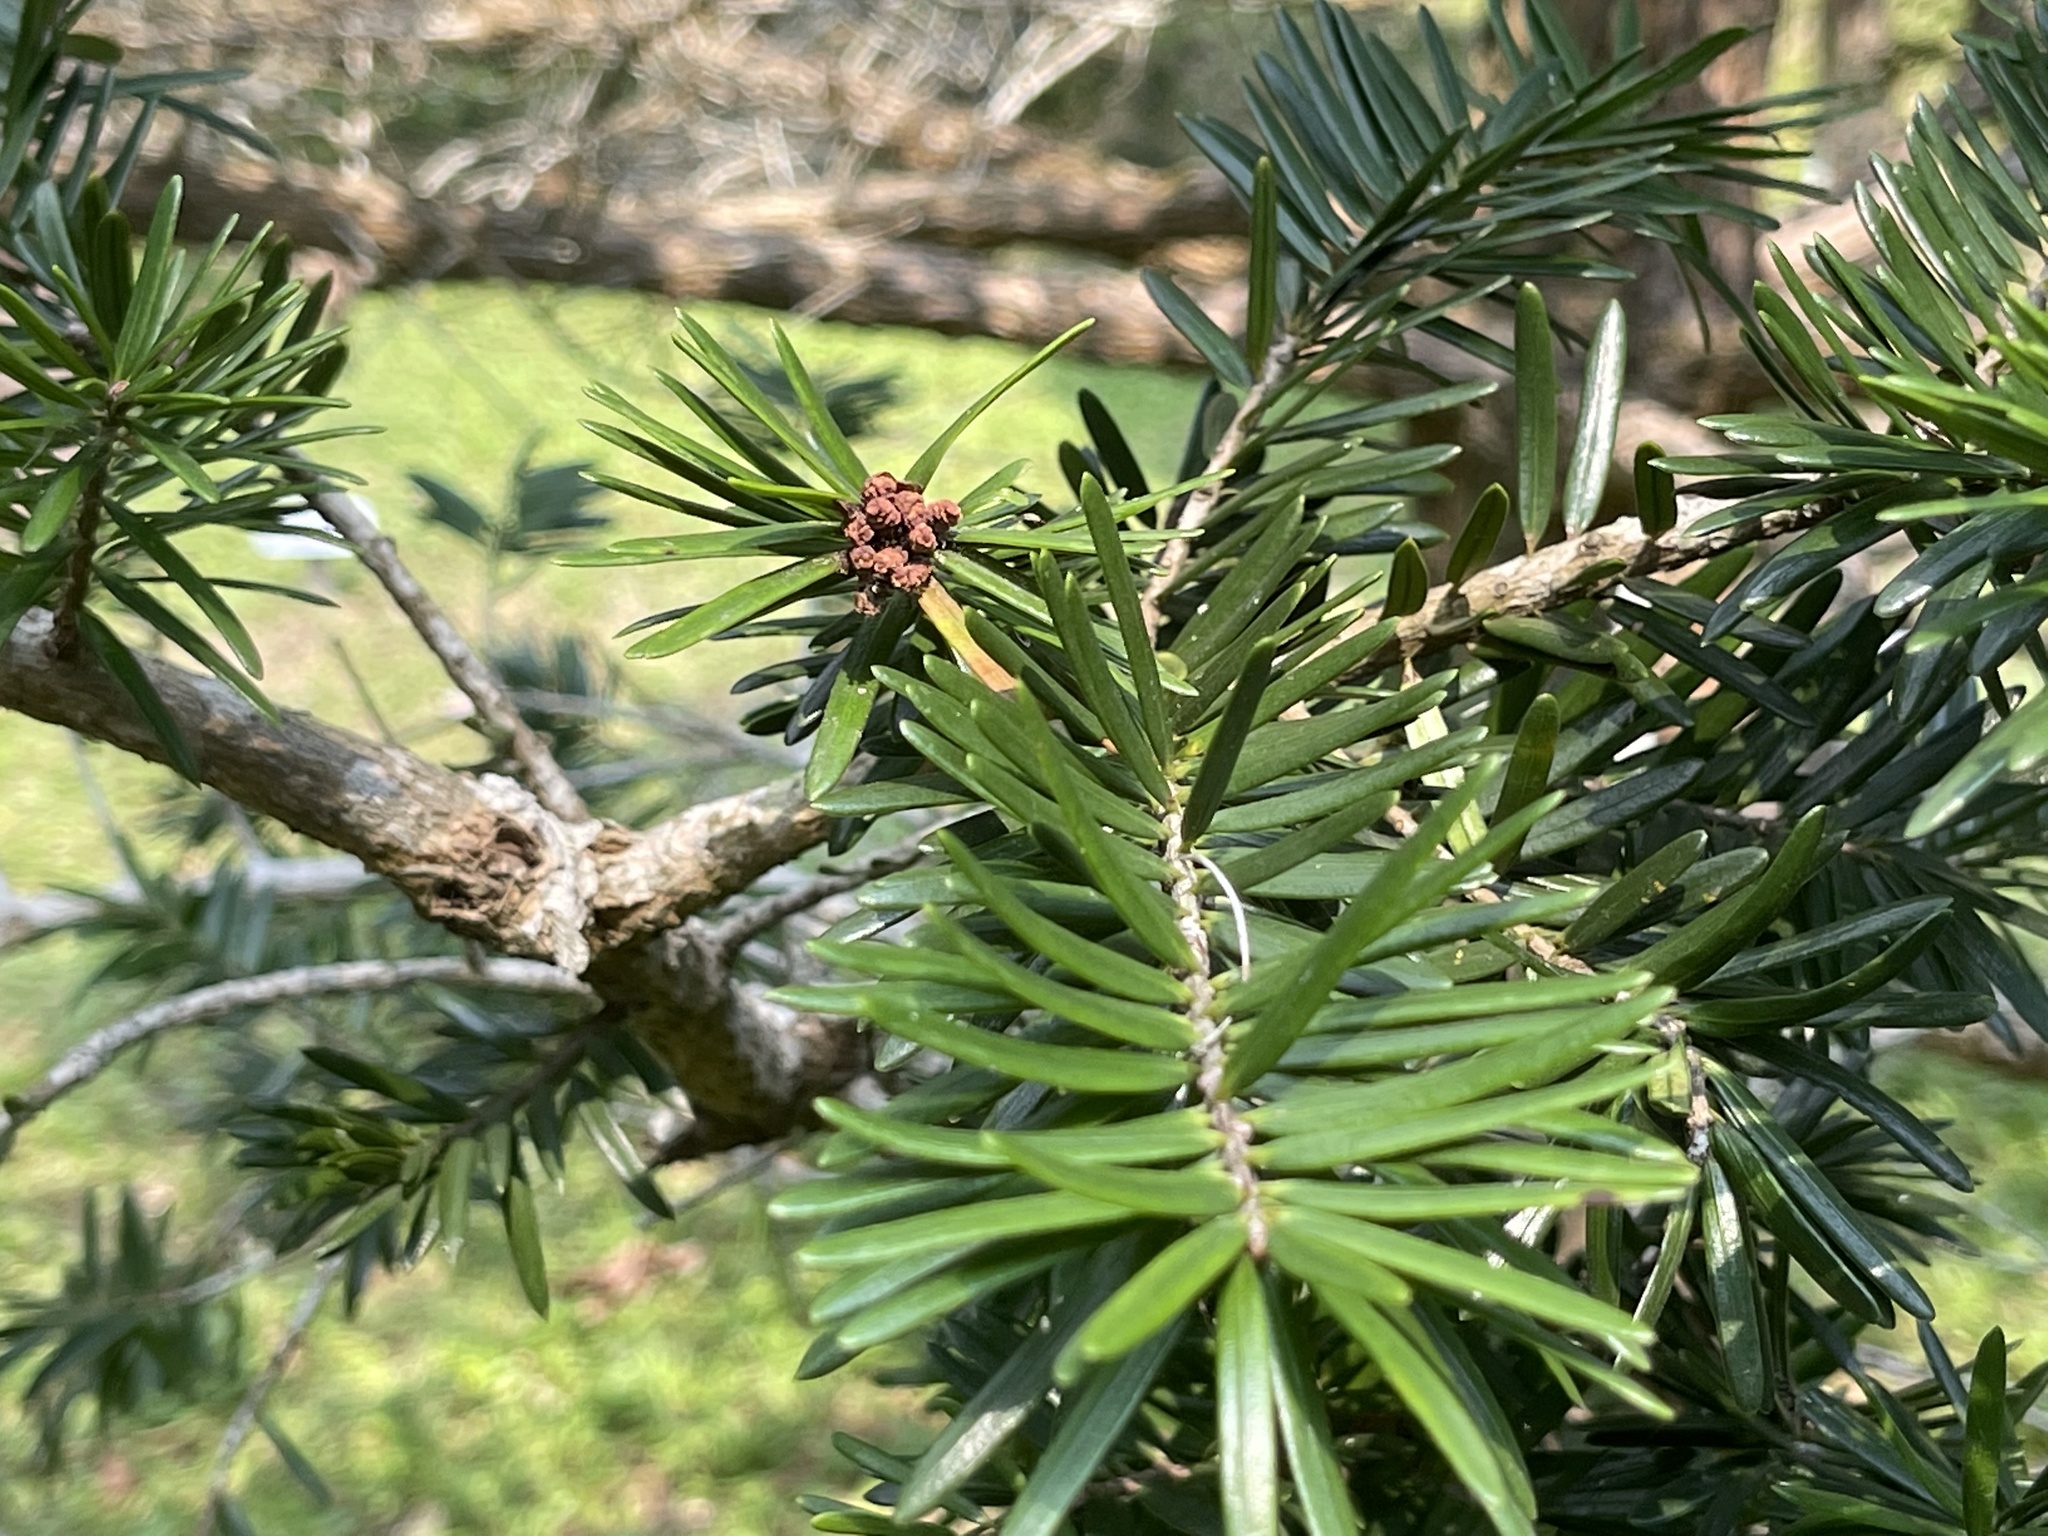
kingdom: Plantae
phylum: Tracheophyta
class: Pinopsida
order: Pinales
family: Pinaceae
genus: Keteleeria
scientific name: Keteleeria fortunei
